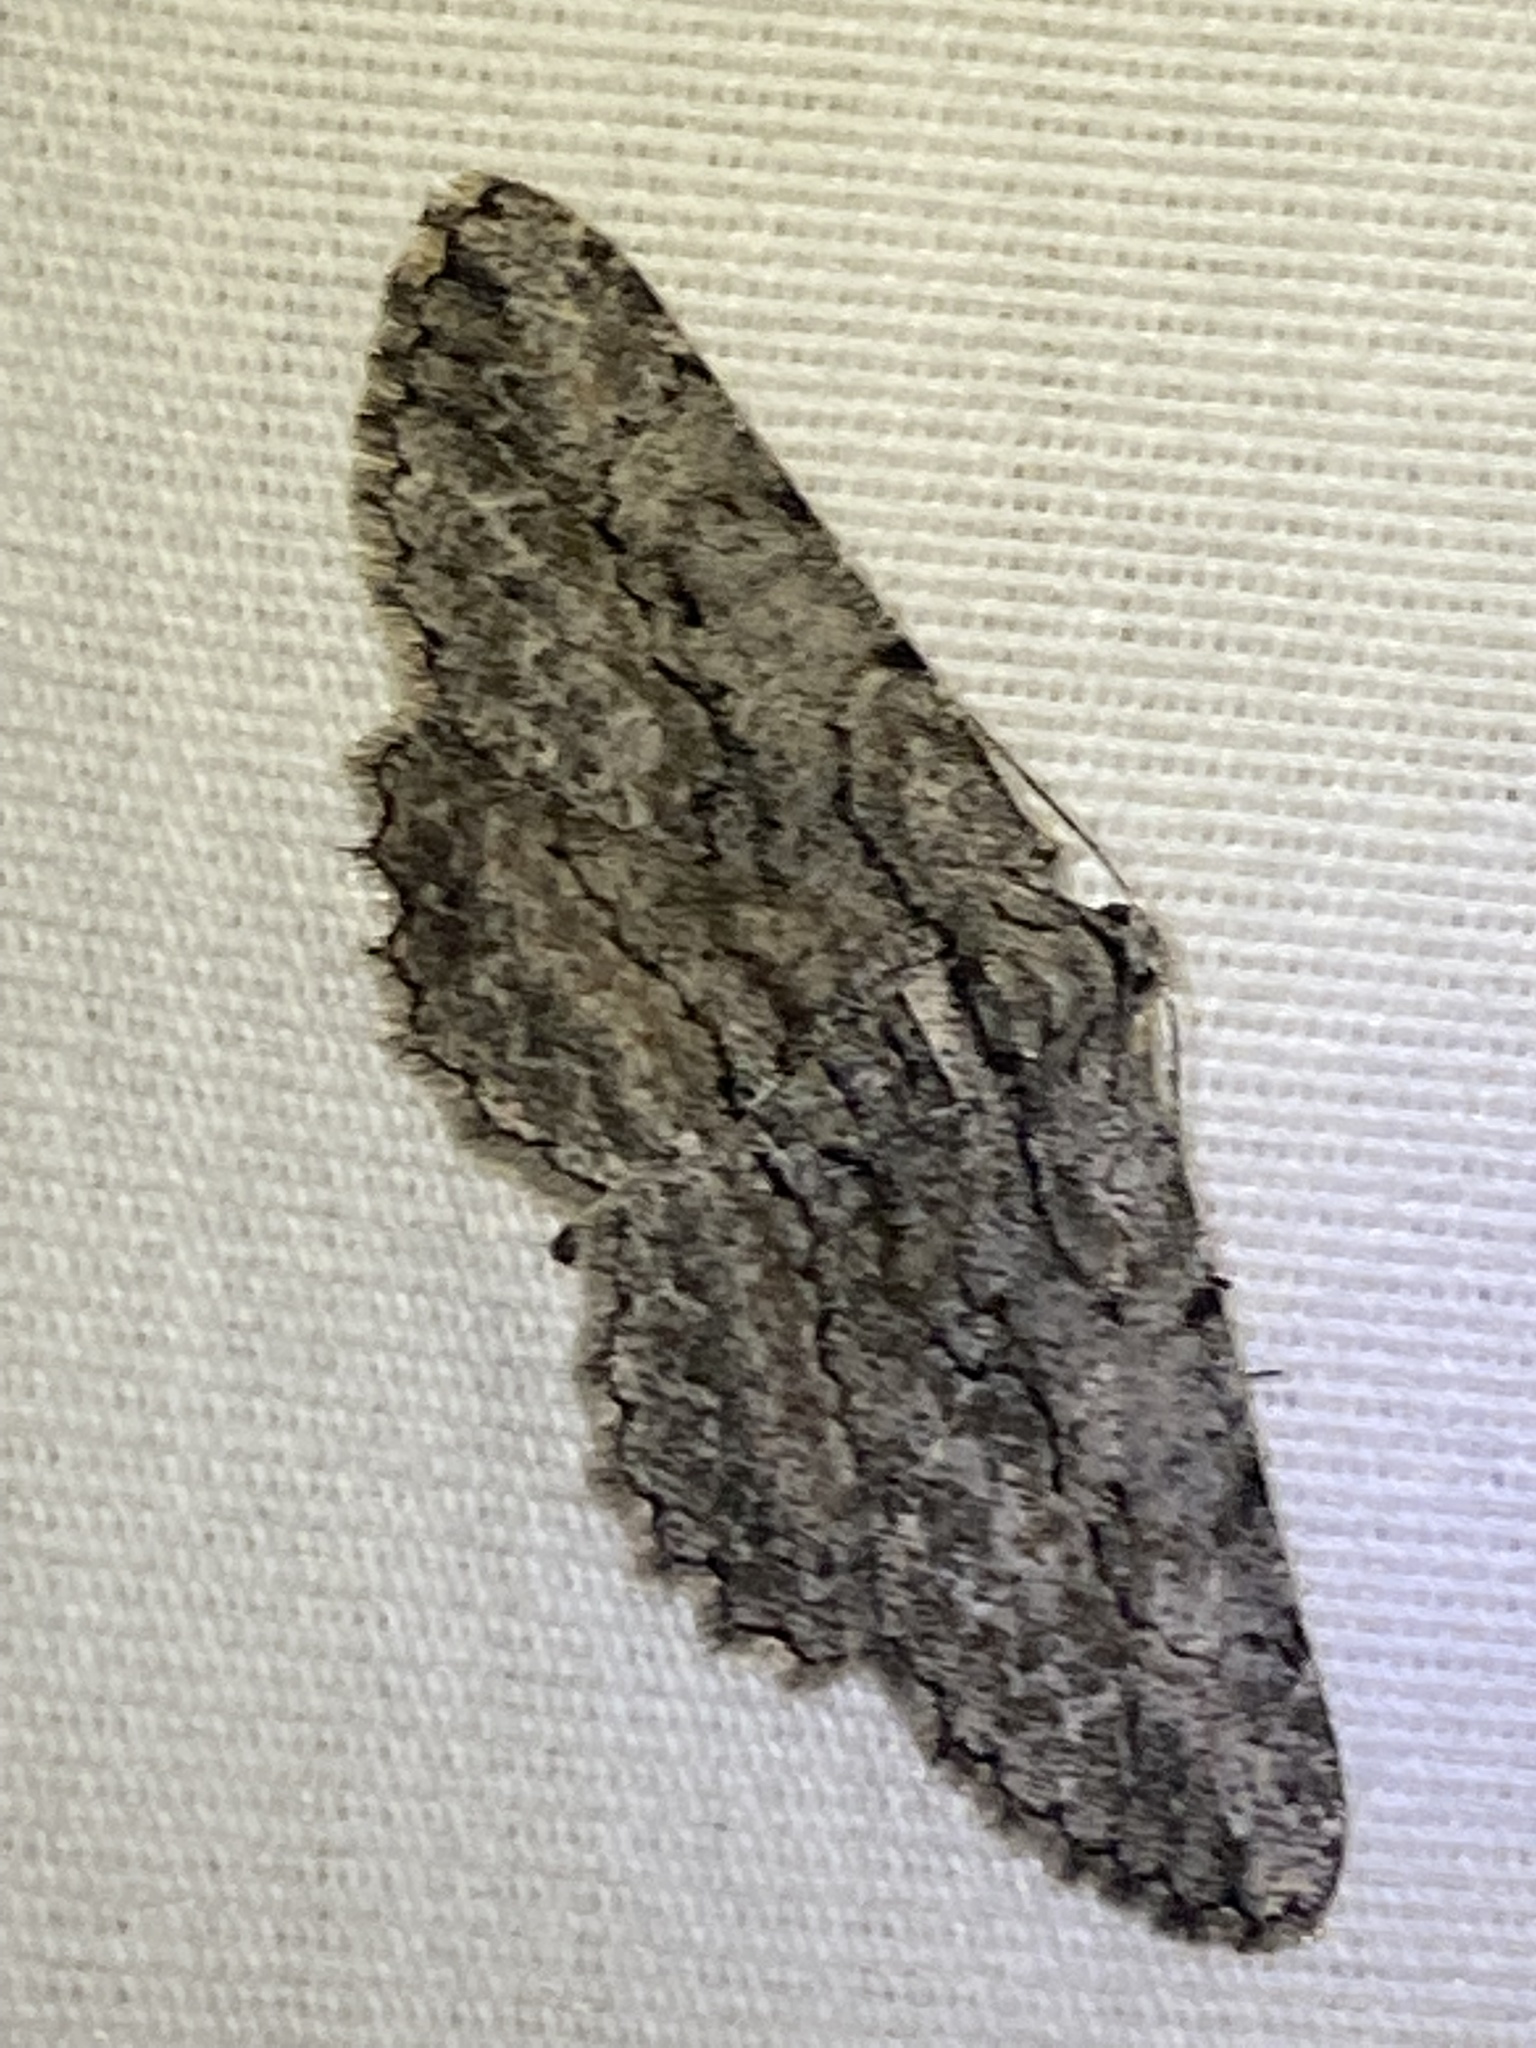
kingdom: Animalia
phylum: Arthropoda
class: Insecta
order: Lepidoptera
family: Geometridae
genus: Anavitrinella
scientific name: Anavitrinella pampinaria
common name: Common gray
